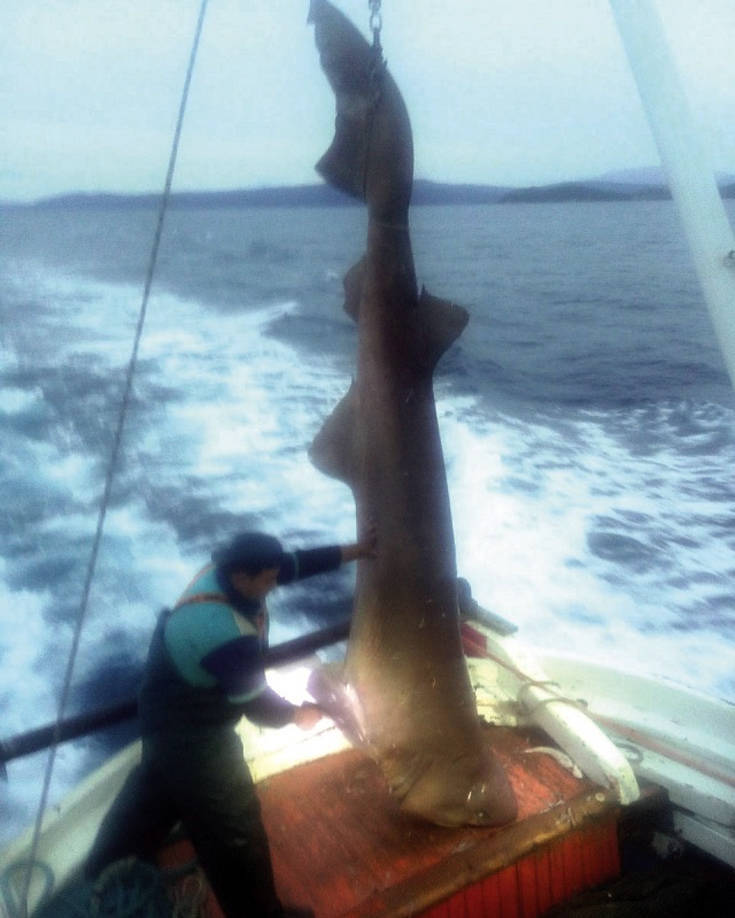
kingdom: Animalia
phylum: Chordata
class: Elasmobranchii
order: Hexanchiformes
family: Hexanchidae
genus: Hexanchus
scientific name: Hexanchus griseus
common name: Bluntnose sixgill shark
